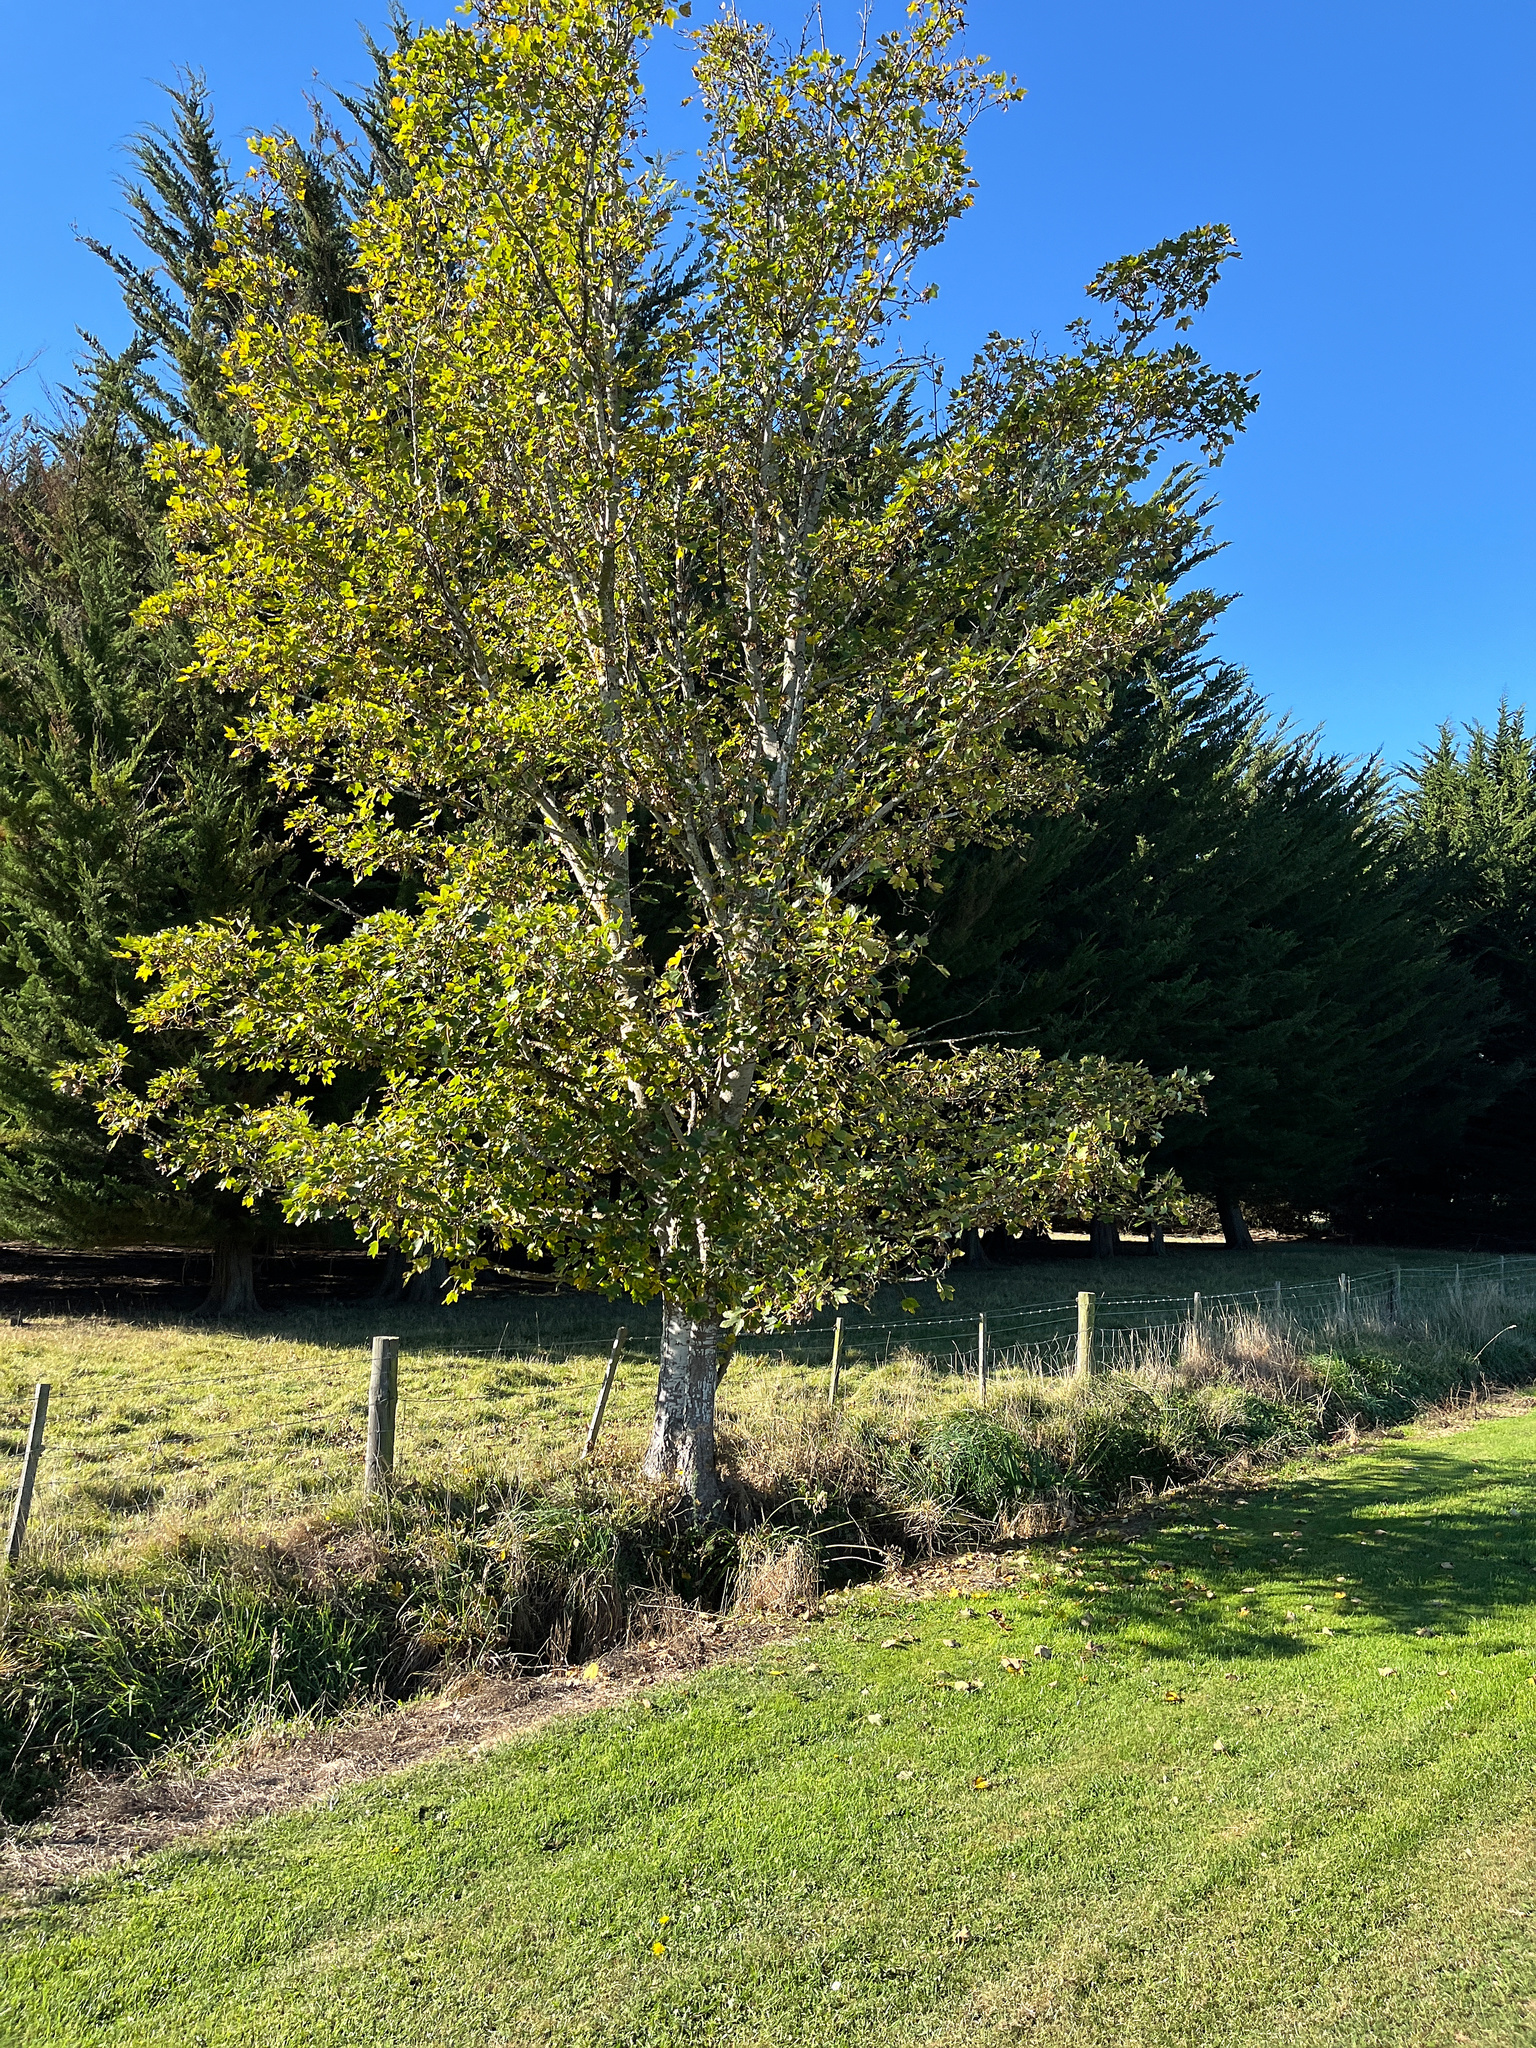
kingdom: Plantae
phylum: Tracheophyta
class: Magnoliopsida
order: Sapindales
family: Sapindaceae
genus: Acer
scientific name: Acer pseudoplatanus
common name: Sycamore
